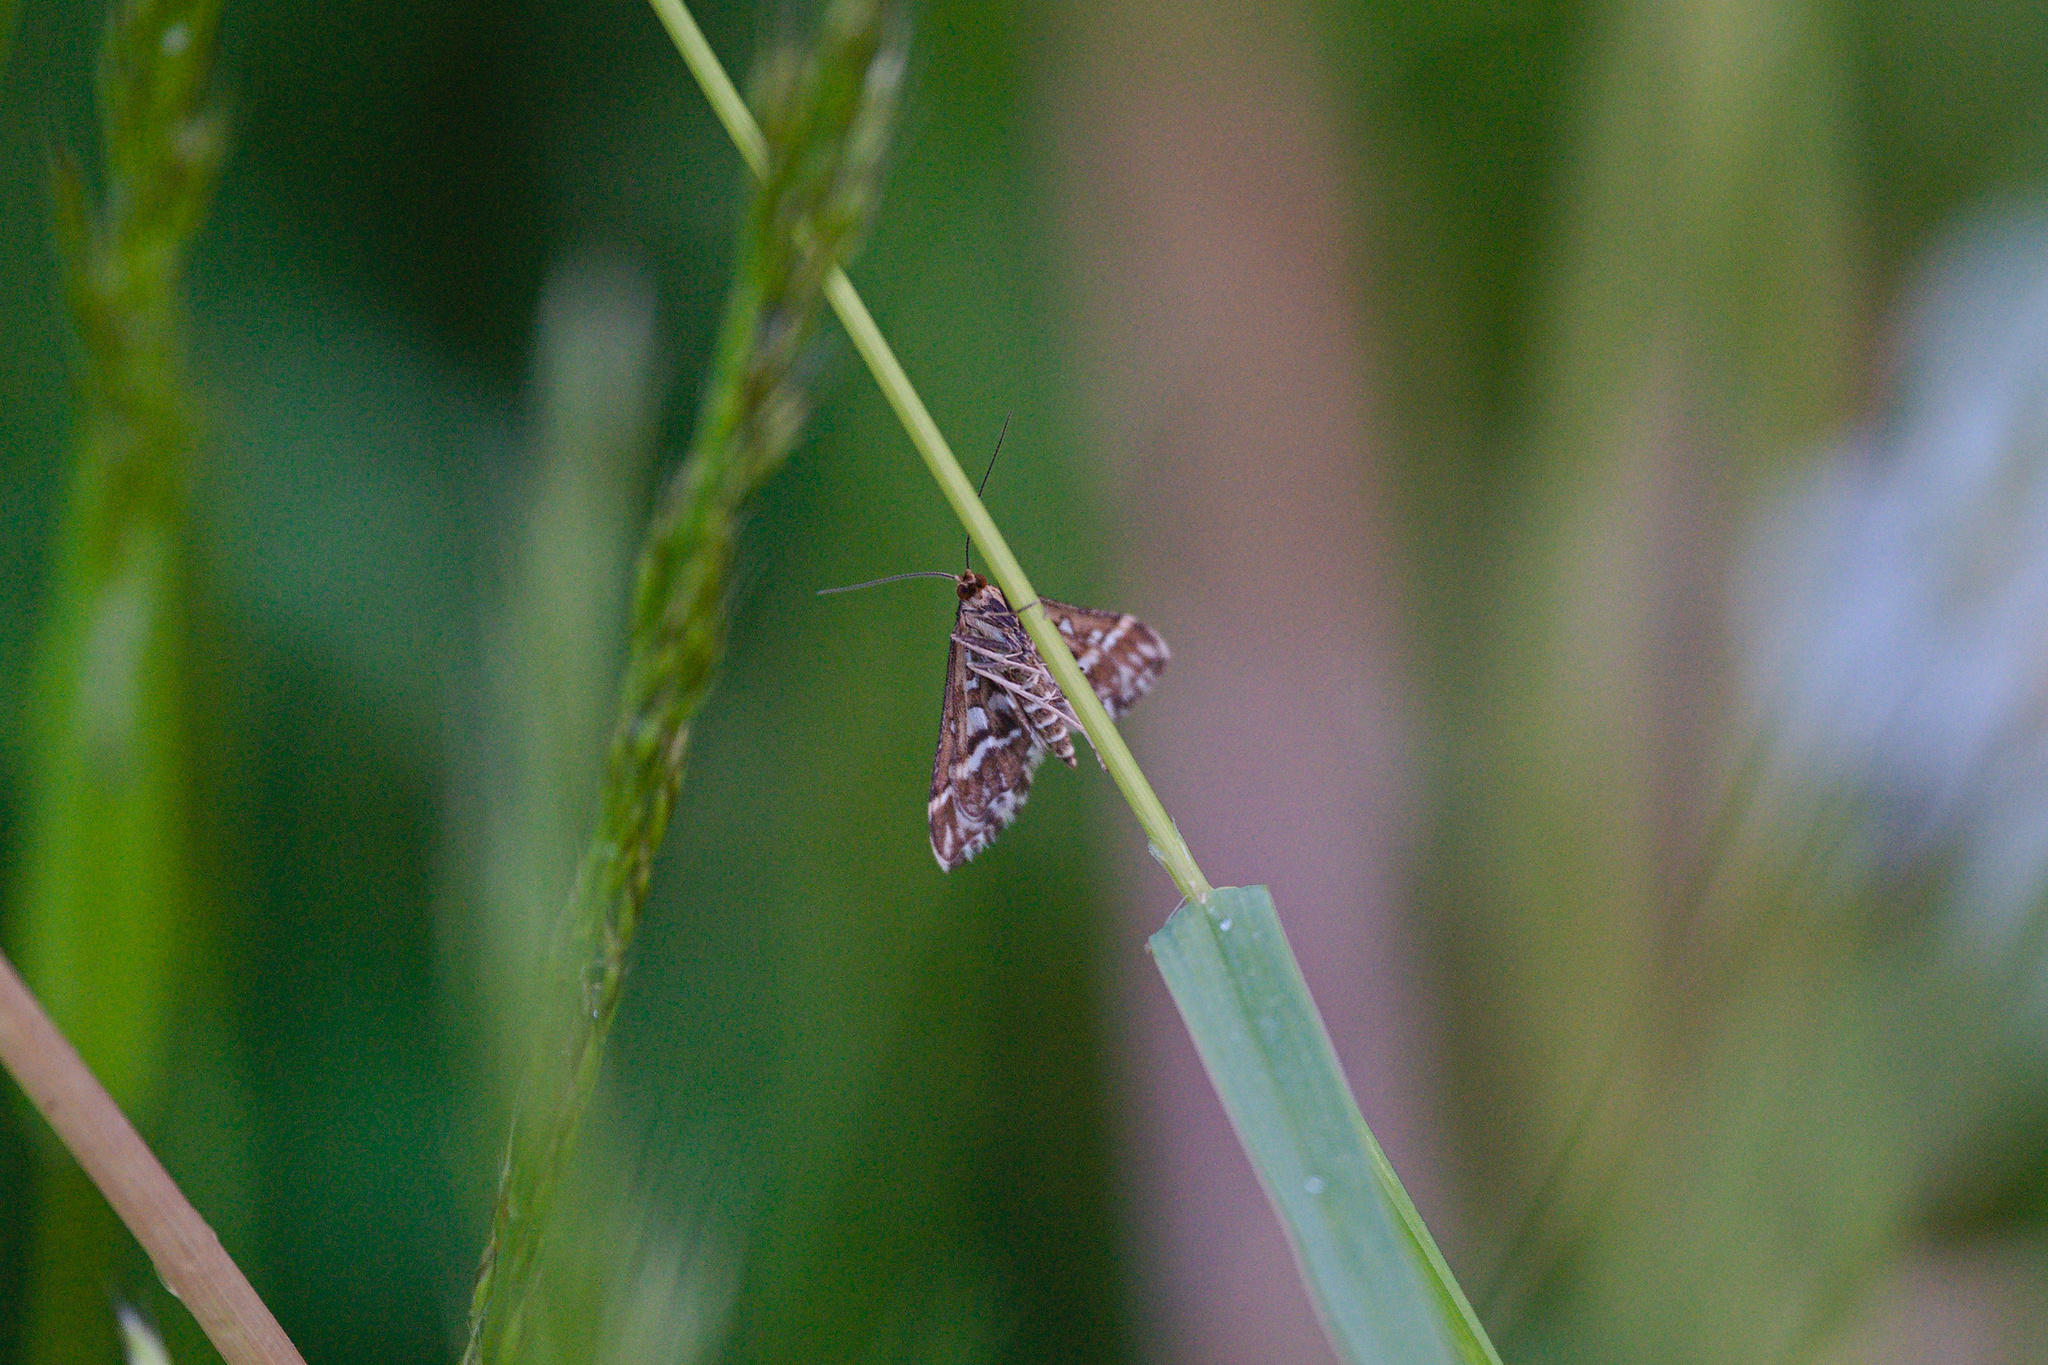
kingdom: Animalia
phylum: Arthropoda
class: Insecta
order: Lepidoptera
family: Crambidae
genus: Diasemia
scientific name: Diasemia reticularis
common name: Lettered china-mark
